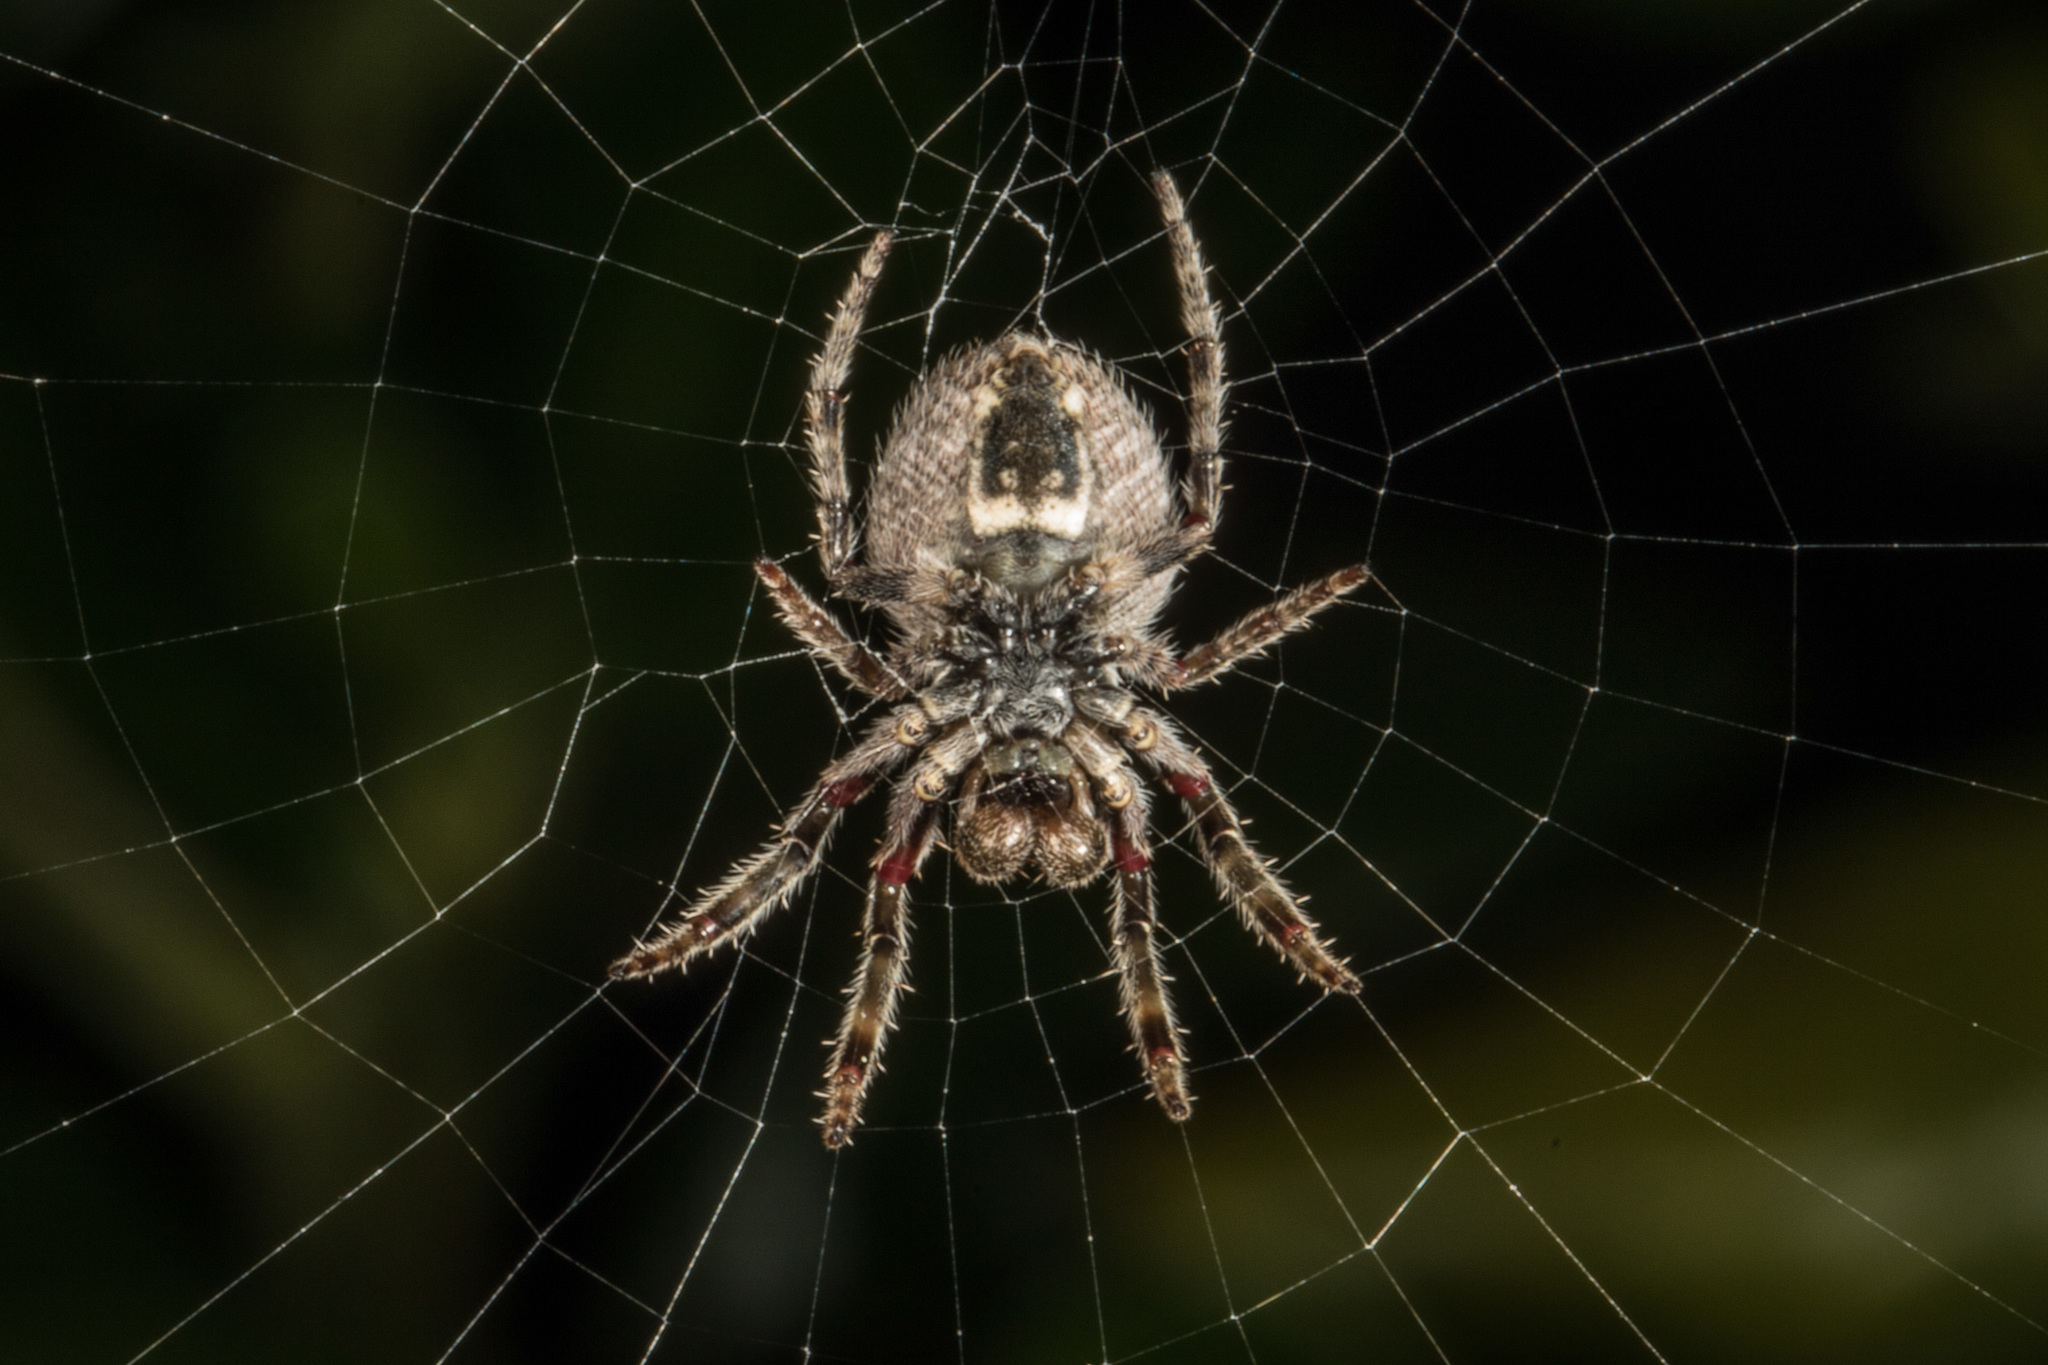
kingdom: Animalia
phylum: Arthropoda
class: Arachnida
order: Araneae
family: Araneidae
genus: Eriophora
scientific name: Eriophora pustulosa
